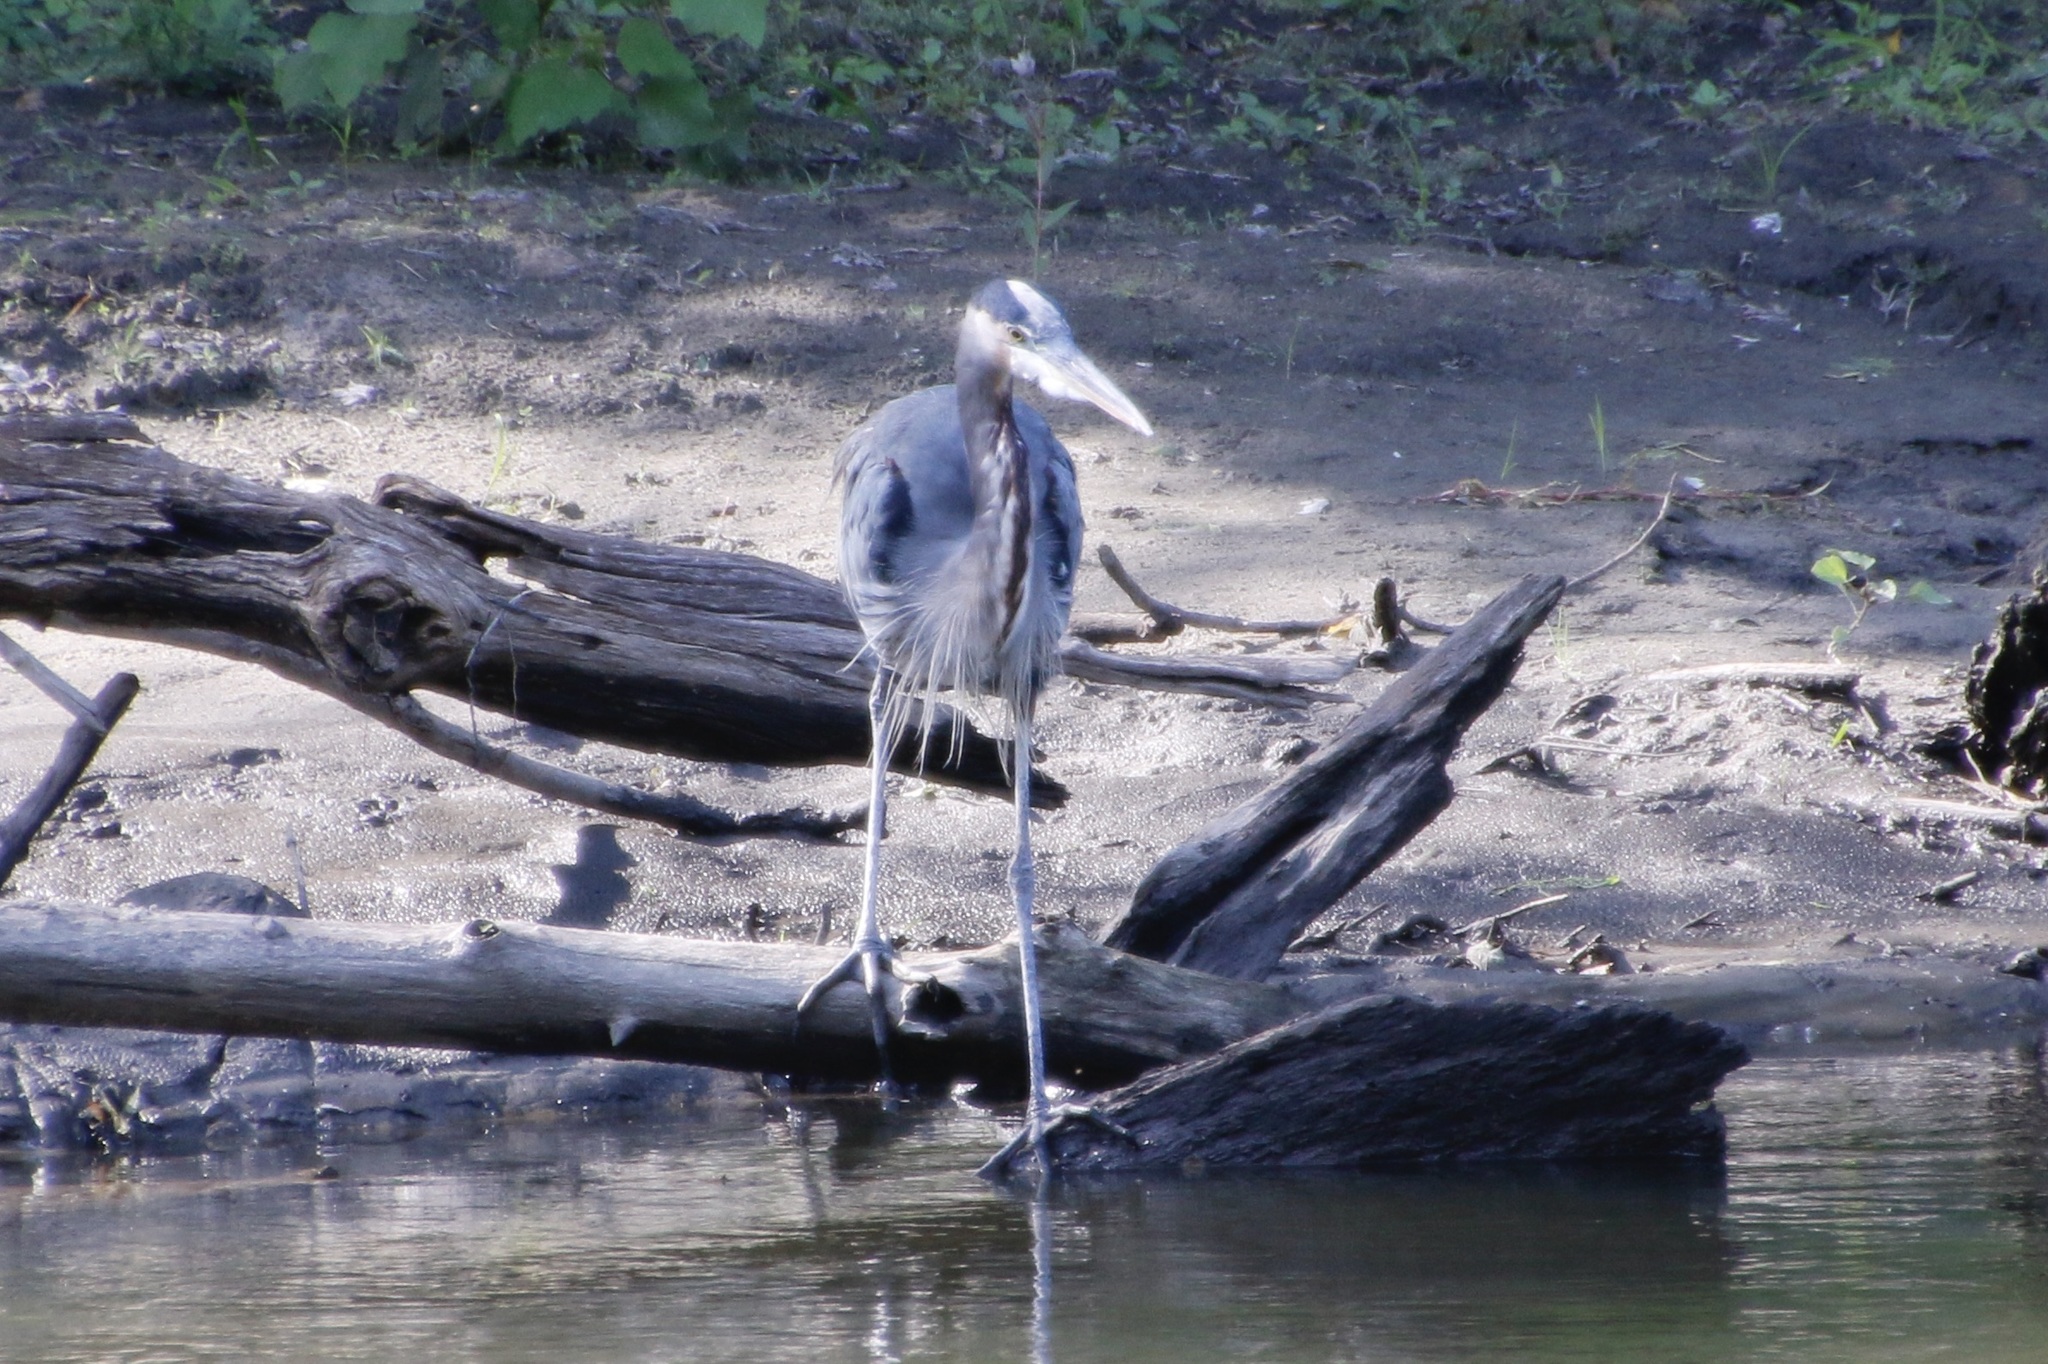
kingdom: Animalia
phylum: Chordata
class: Aves
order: Pelecaniformes
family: Ardeidae
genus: Ardea
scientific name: Ardea herodias
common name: Great blue heron
